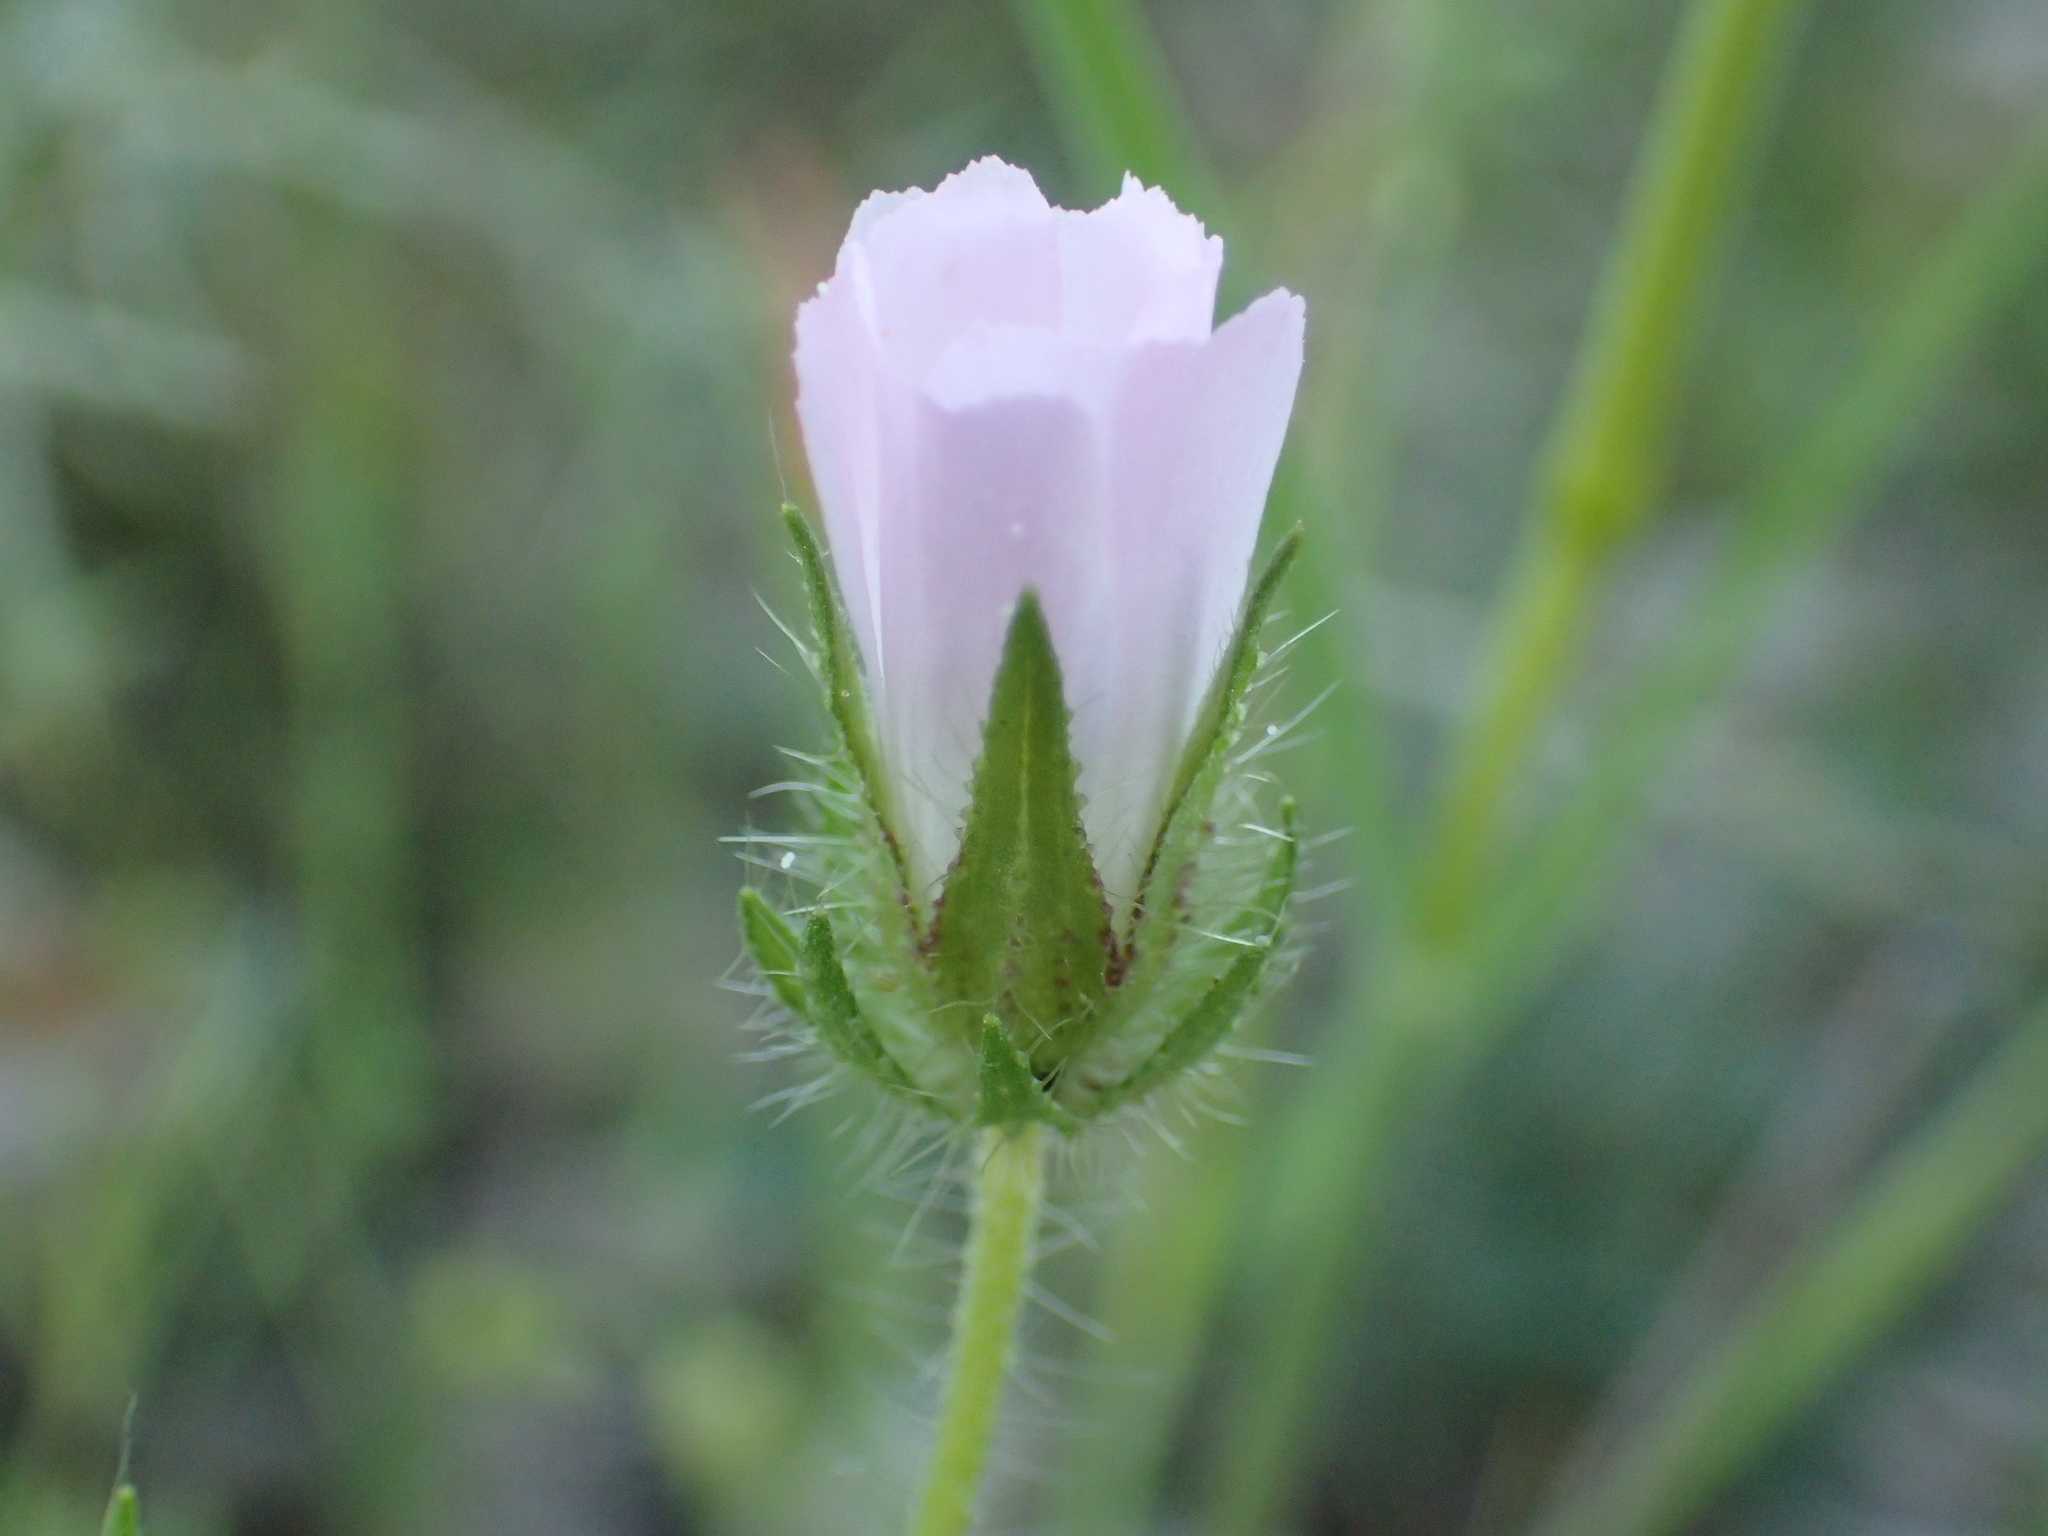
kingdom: Plantae
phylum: Tracheophyta
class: Magnoliopsida
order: Malvales
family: Malvaceae
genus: Althaea
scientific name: Althaea hirsuta
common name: Rough marsh-mallow
